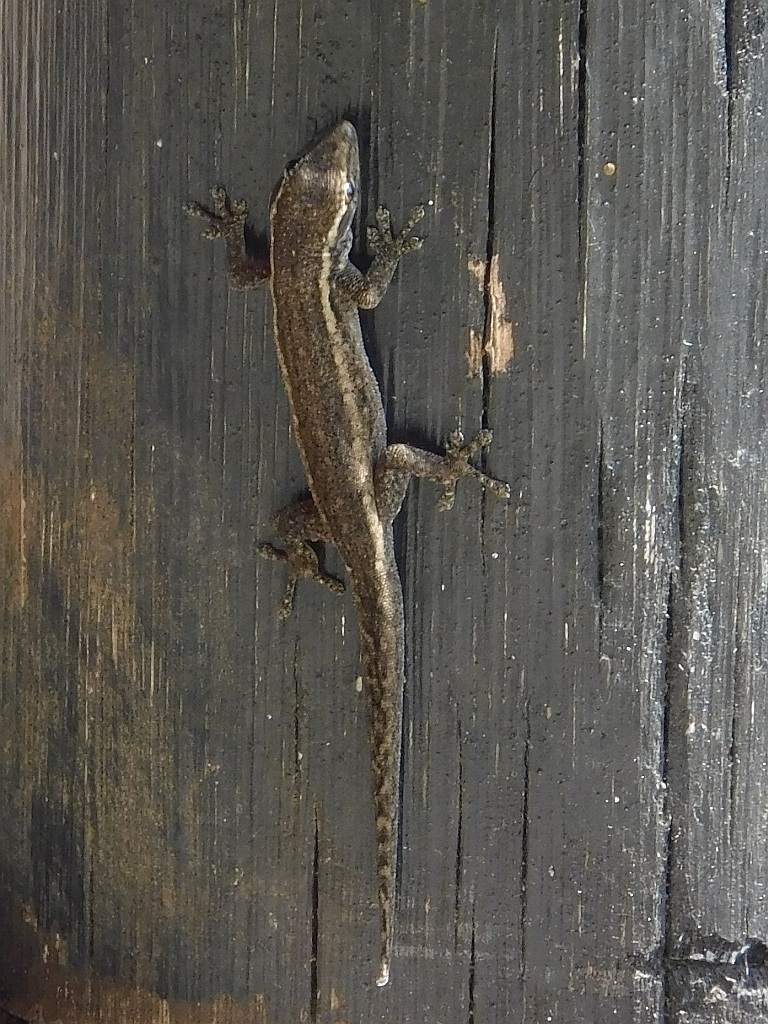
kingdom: Animalia
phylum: Chordata
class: Squamata
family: Gekkonidae
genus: Lygodactylus
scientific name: Lygodactylus capensis
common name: Cape dwarf gecko
